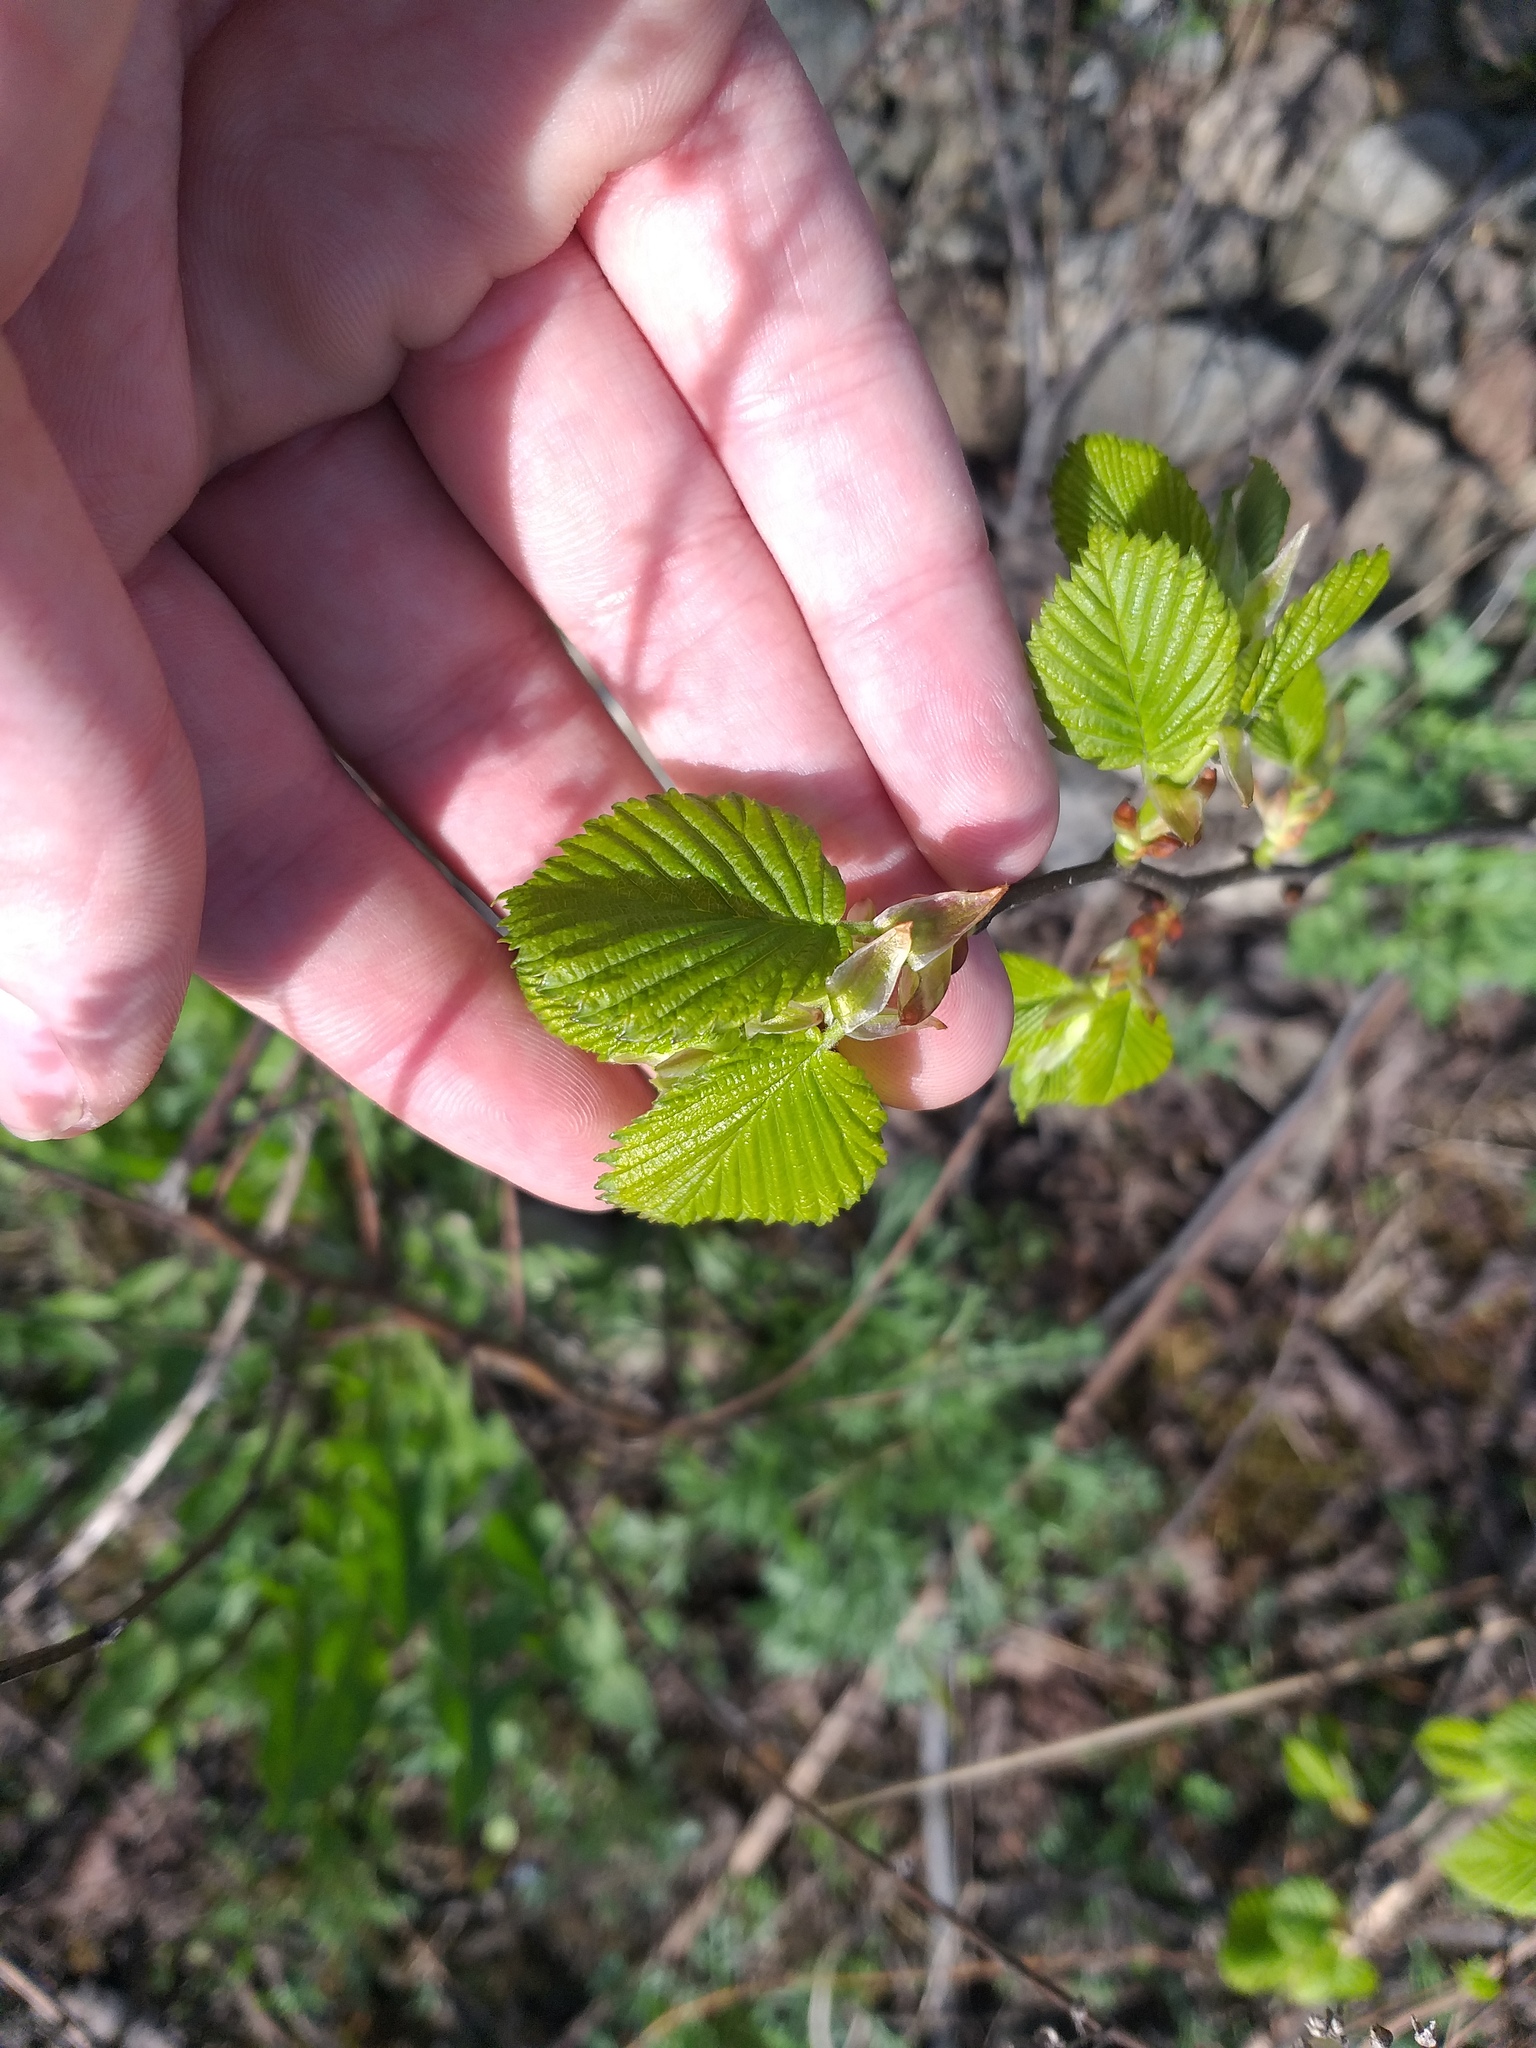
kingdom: Plantae
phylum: Tracheophyta
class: Magnoliopsida
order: Rosales
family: Ulmaceae
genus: Ulmus
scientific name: Ulmus laevis
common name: European white-elm
